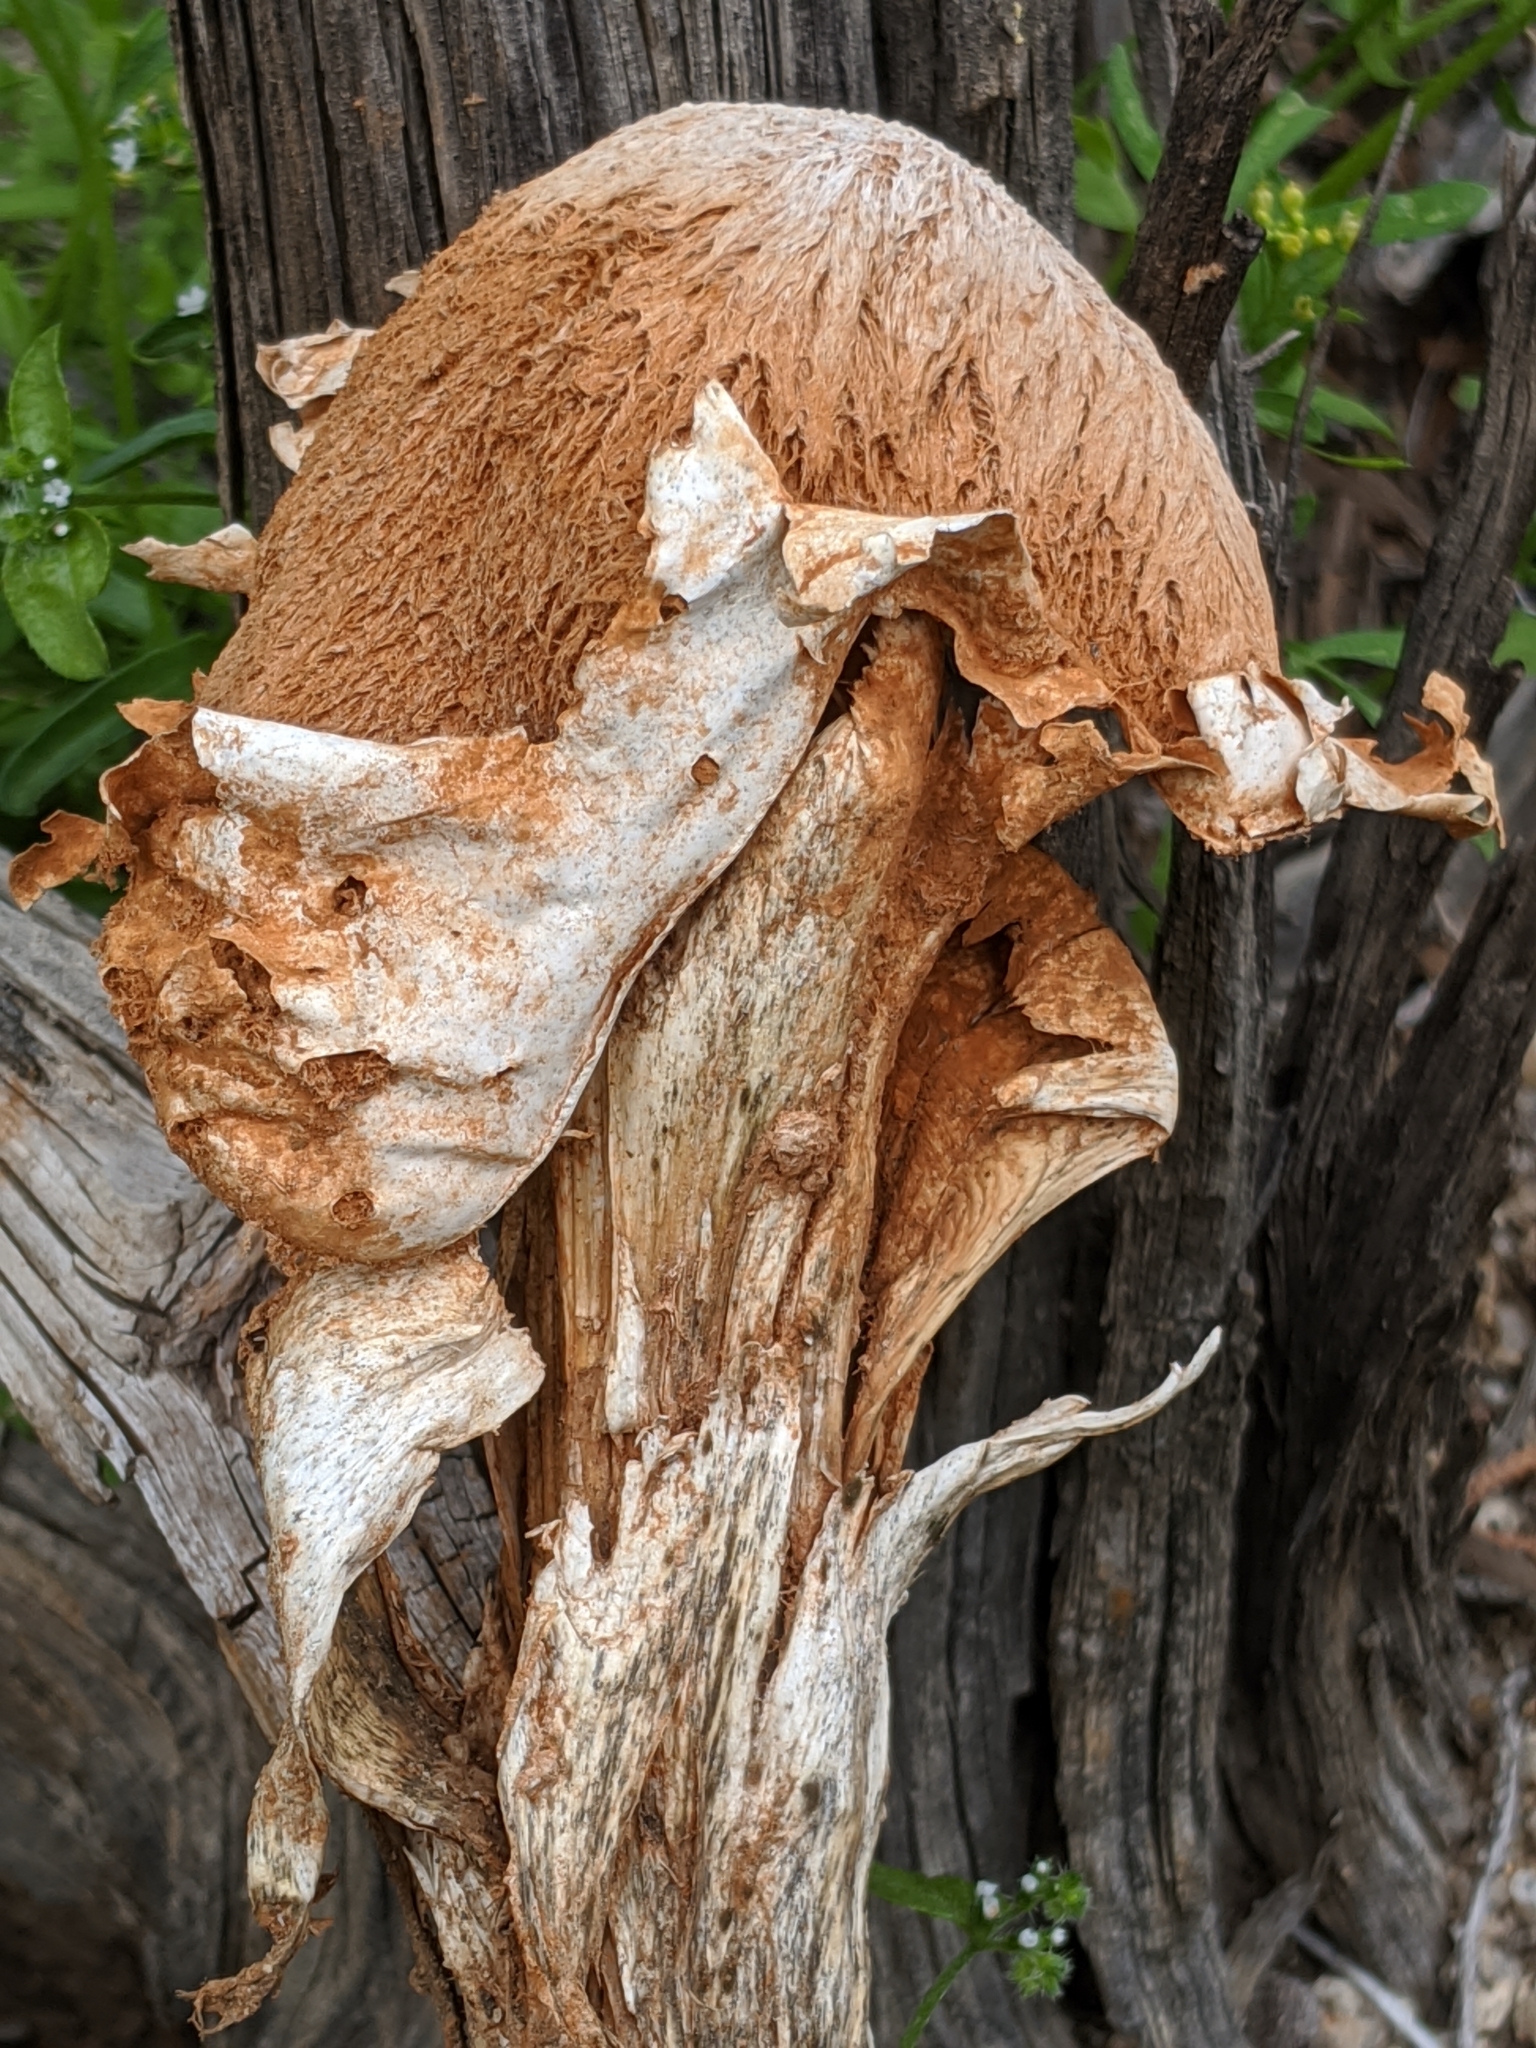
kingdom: Fungi
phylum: Basidiomycota
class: Agaricomycetes
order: Agaricales
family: Agaricaceae
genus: Battarrea
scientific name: Battarrea phalloides
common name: Sandy stiltball
